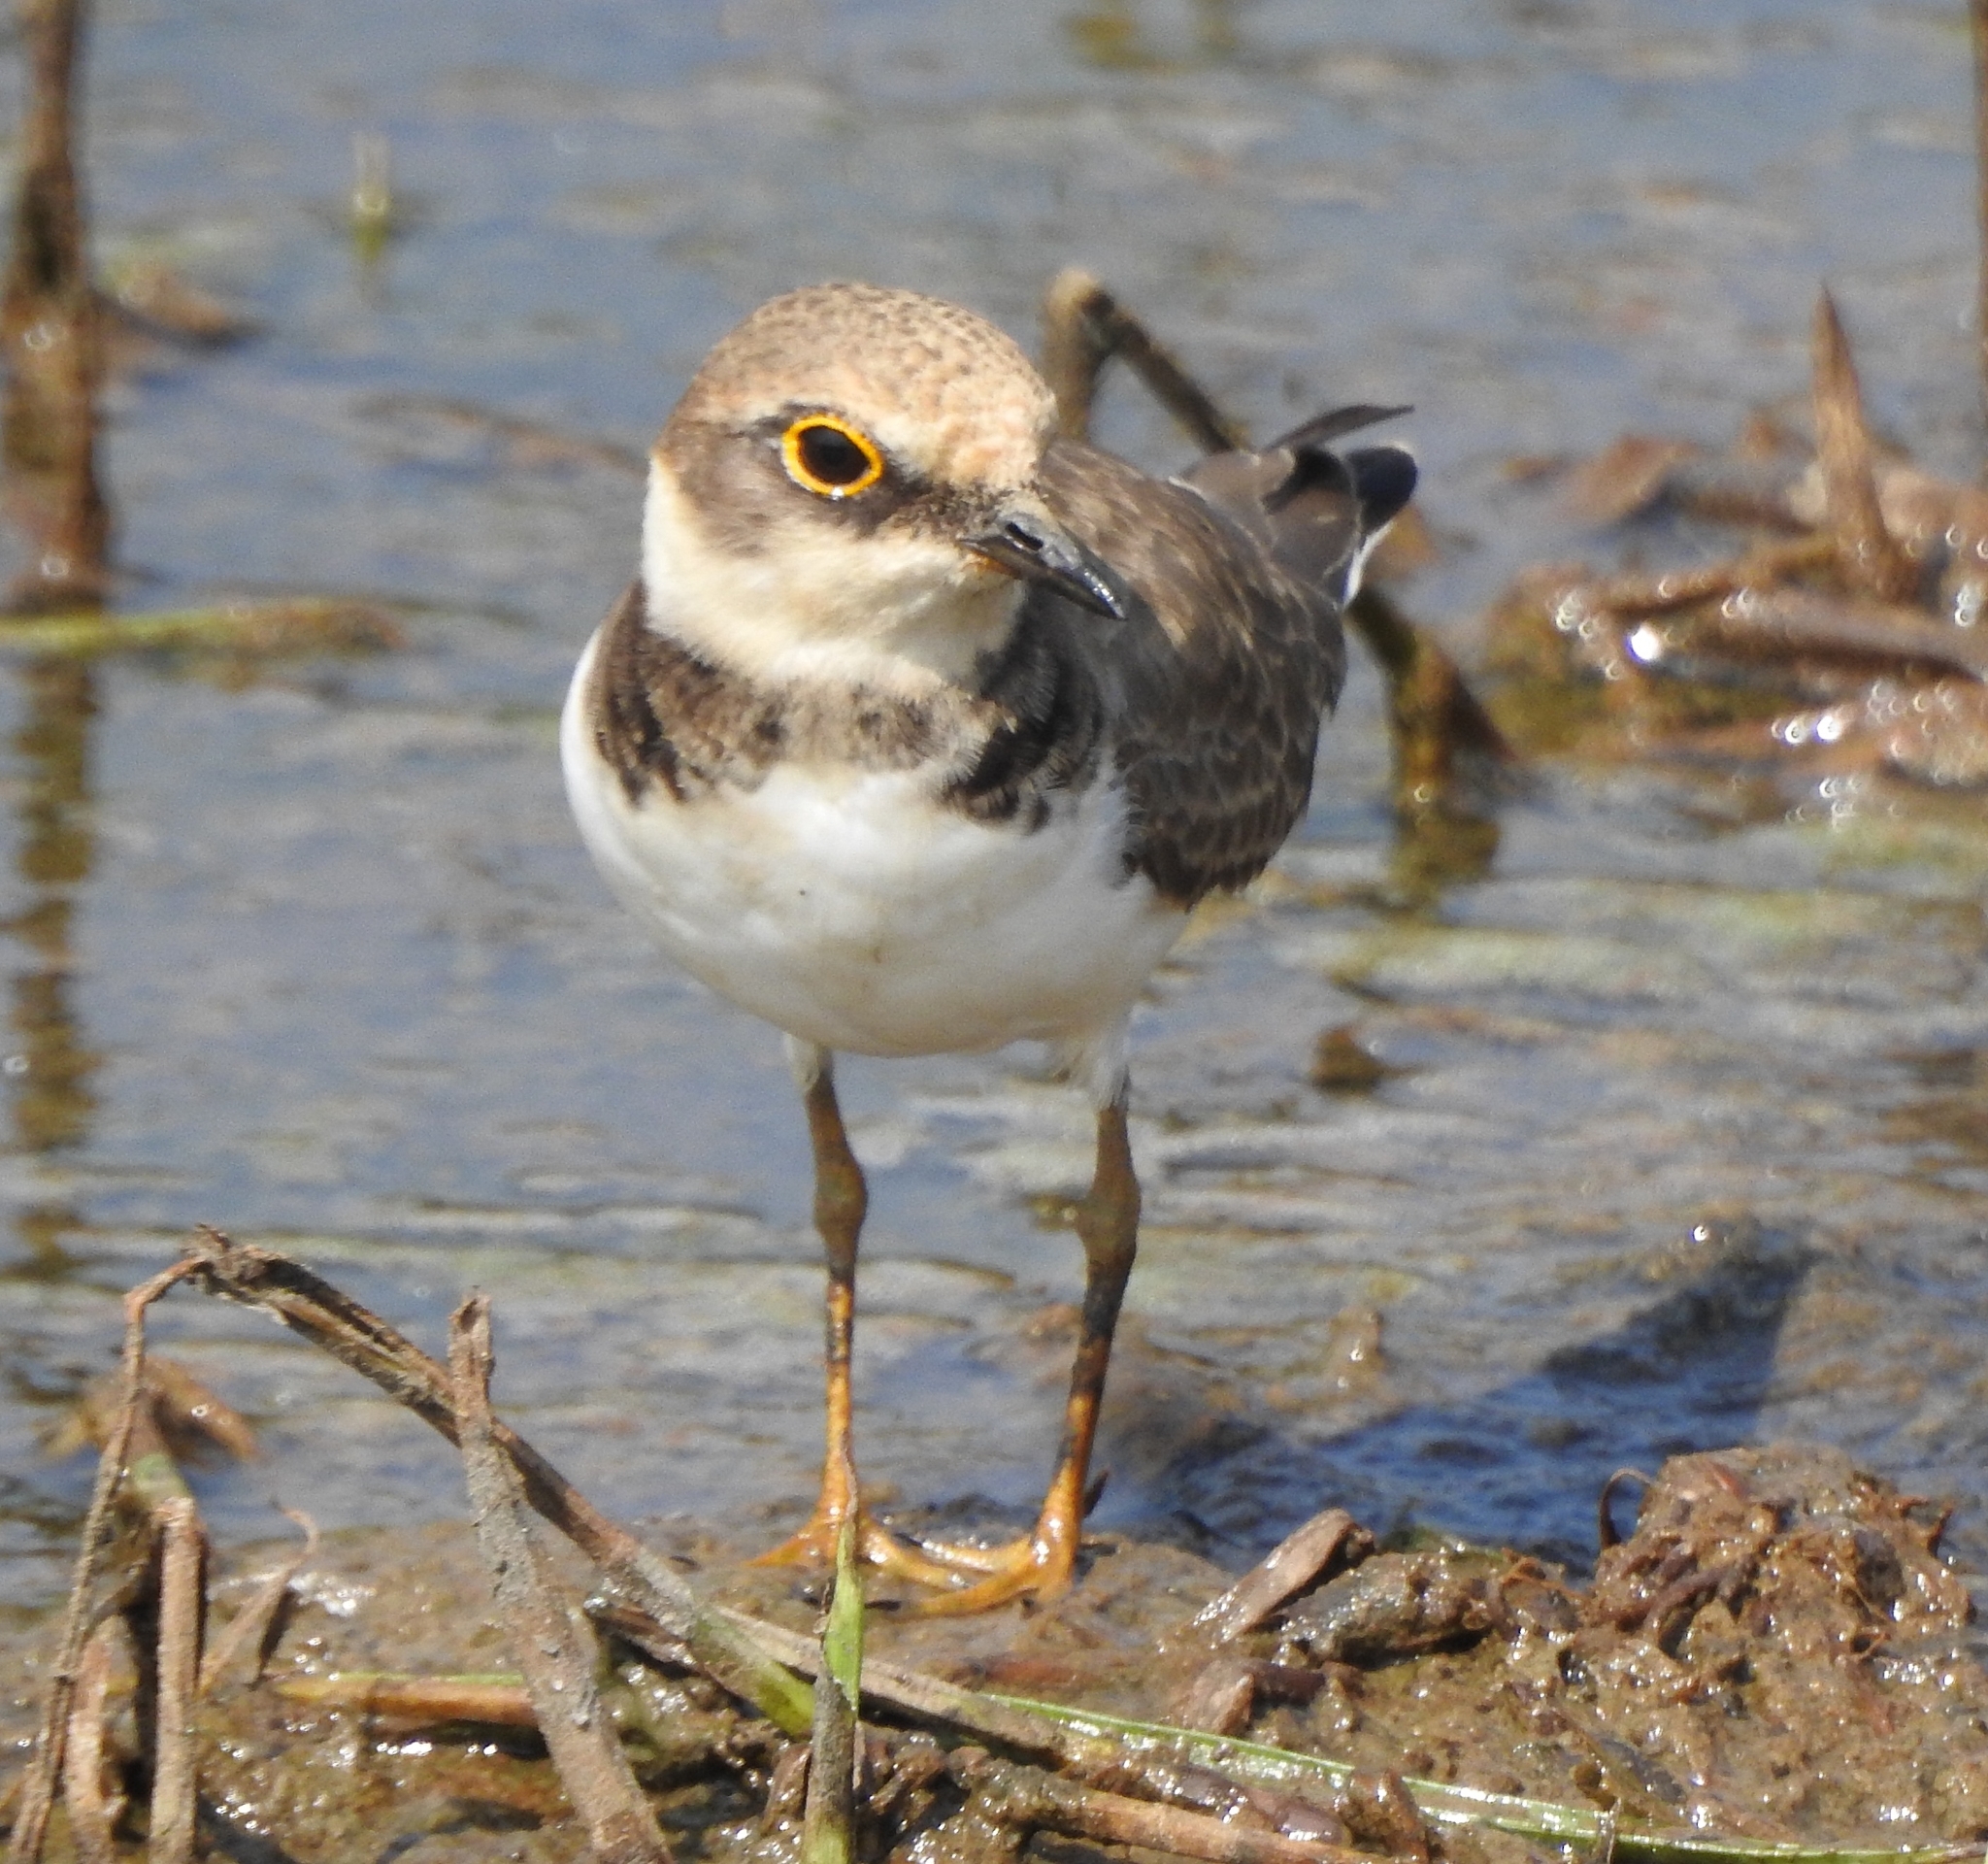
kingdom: Animalia
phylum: Chordata
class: Aves
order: Charadriiformes
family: Charadriidae
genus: Charadrius
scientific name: Charadrius dubius
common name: Little ringed plover
